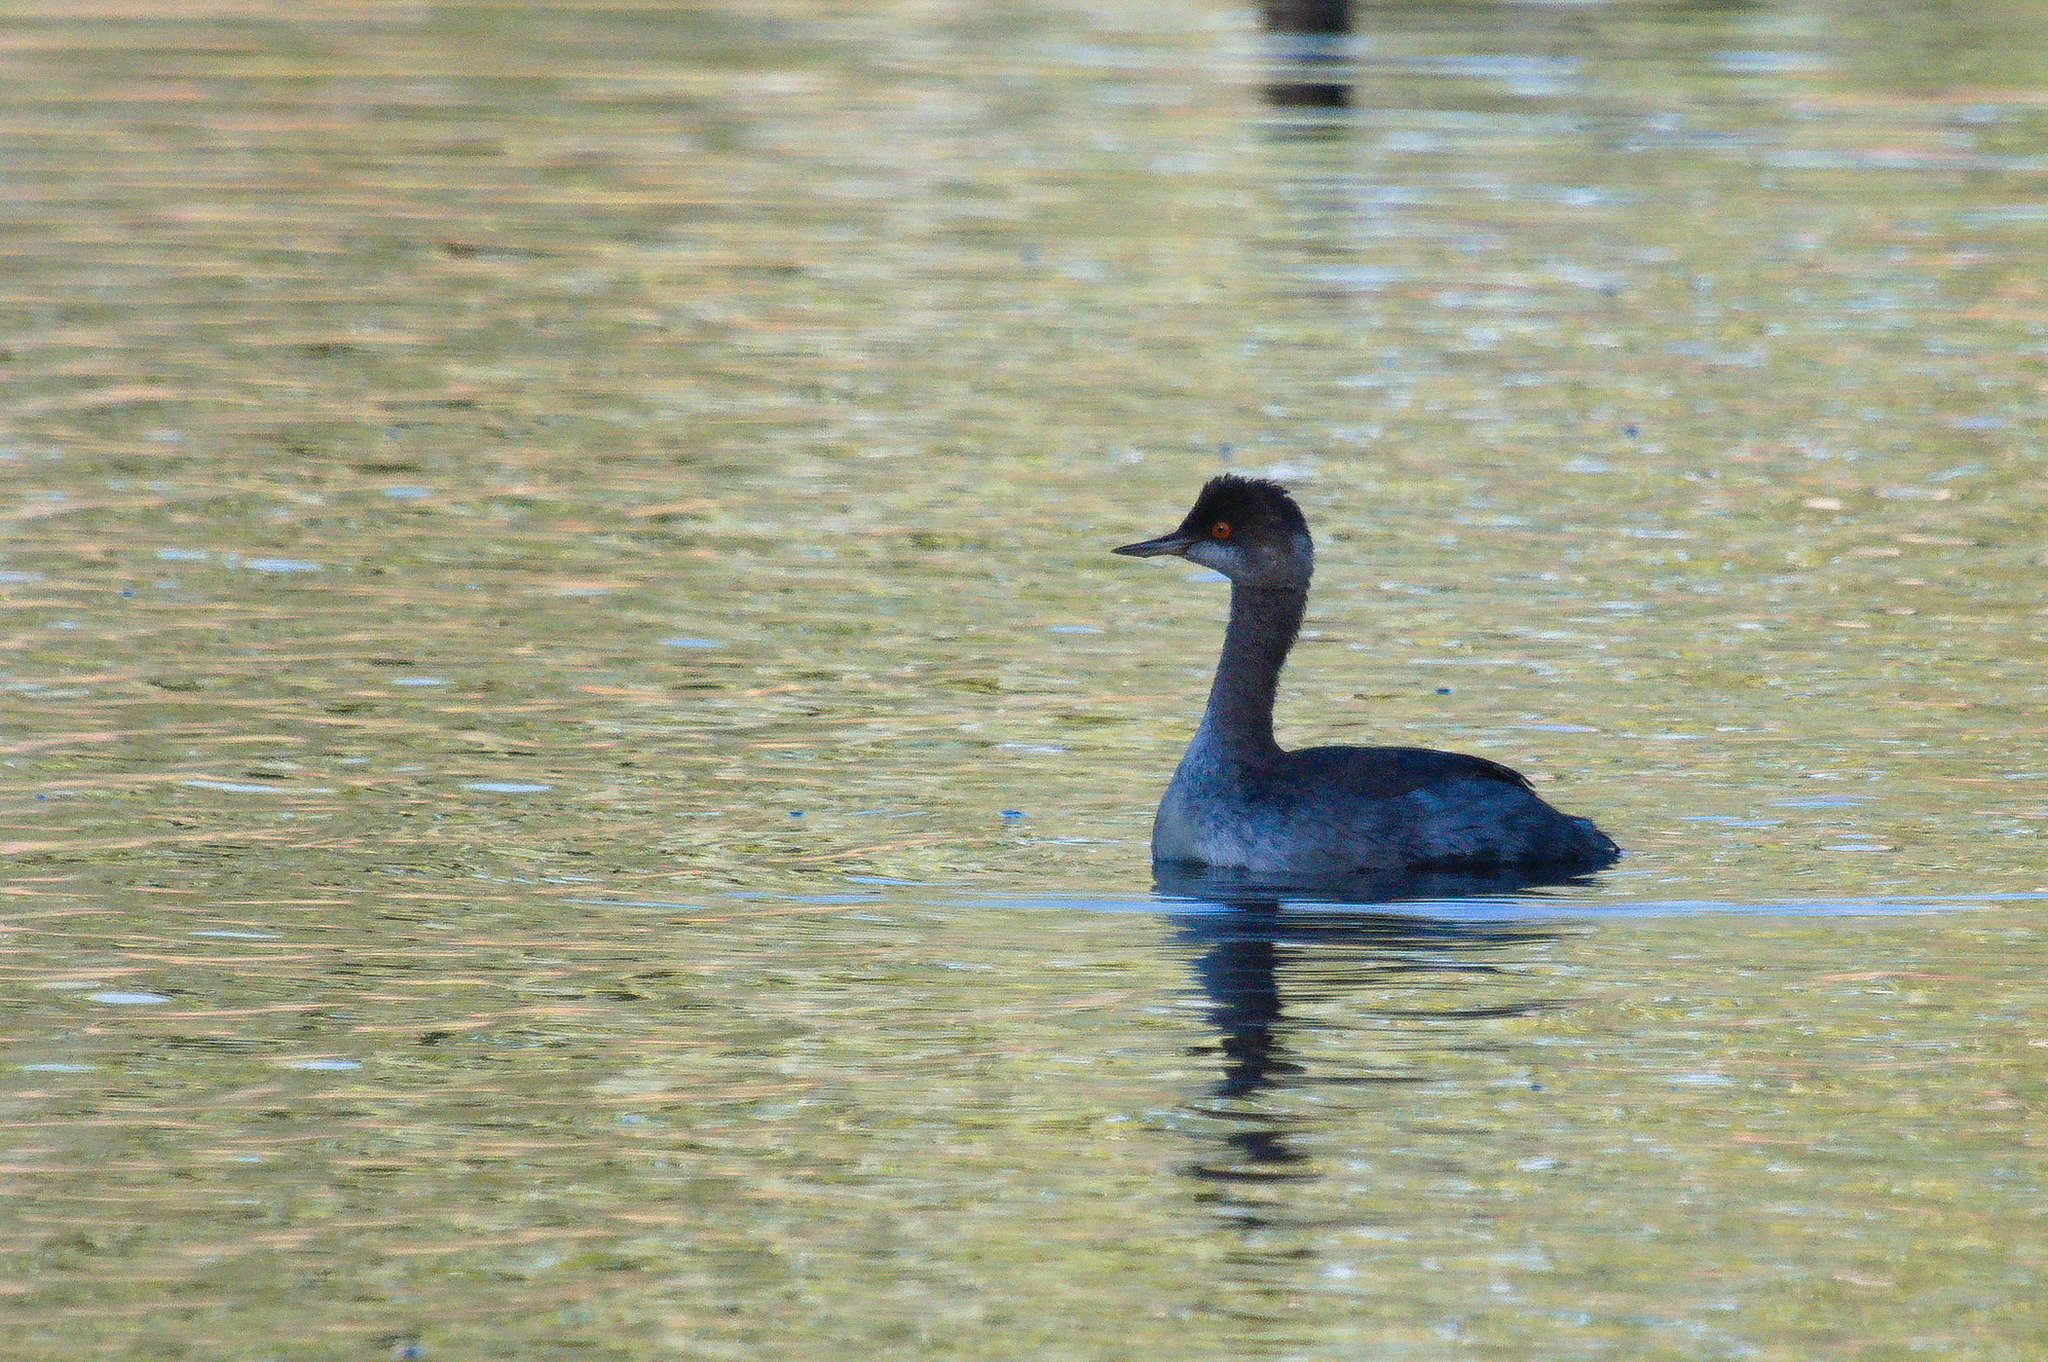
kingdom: Animalia
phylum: Chordata
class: Aves
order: Podicipediformes
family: Podicipedidae
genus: Podiceps
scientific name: Podiceps nigricollis
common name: Black-necked grebe
